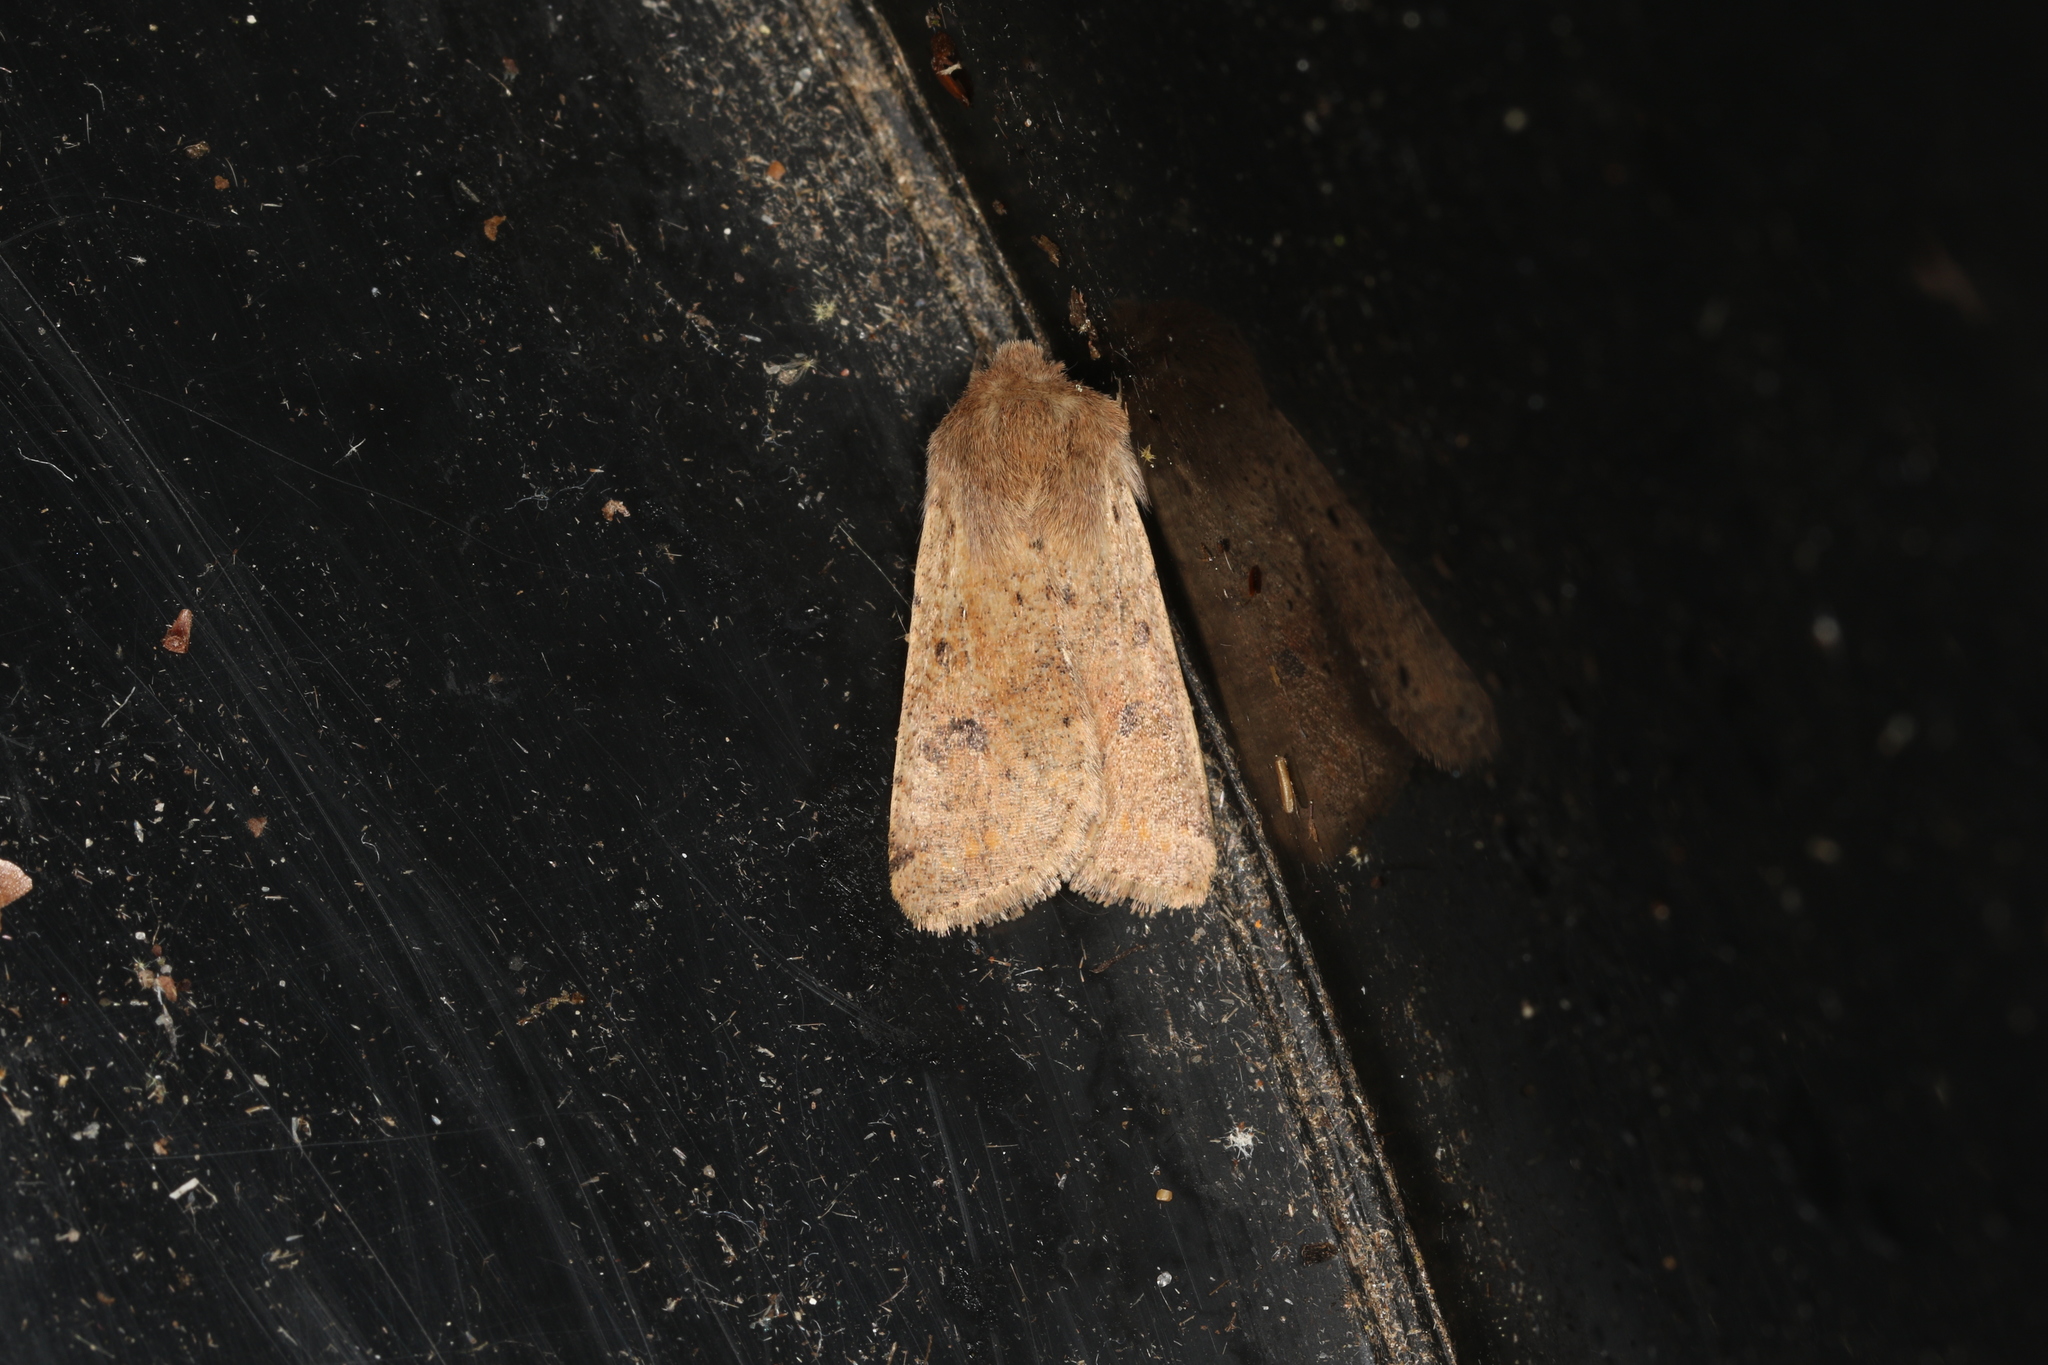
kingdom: Animalia
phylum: Arthropoda
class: Insecta
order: Lepidoptera
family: Noctuidae
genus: Orthosia
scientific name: Orthosia cruda
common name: Small quaker
